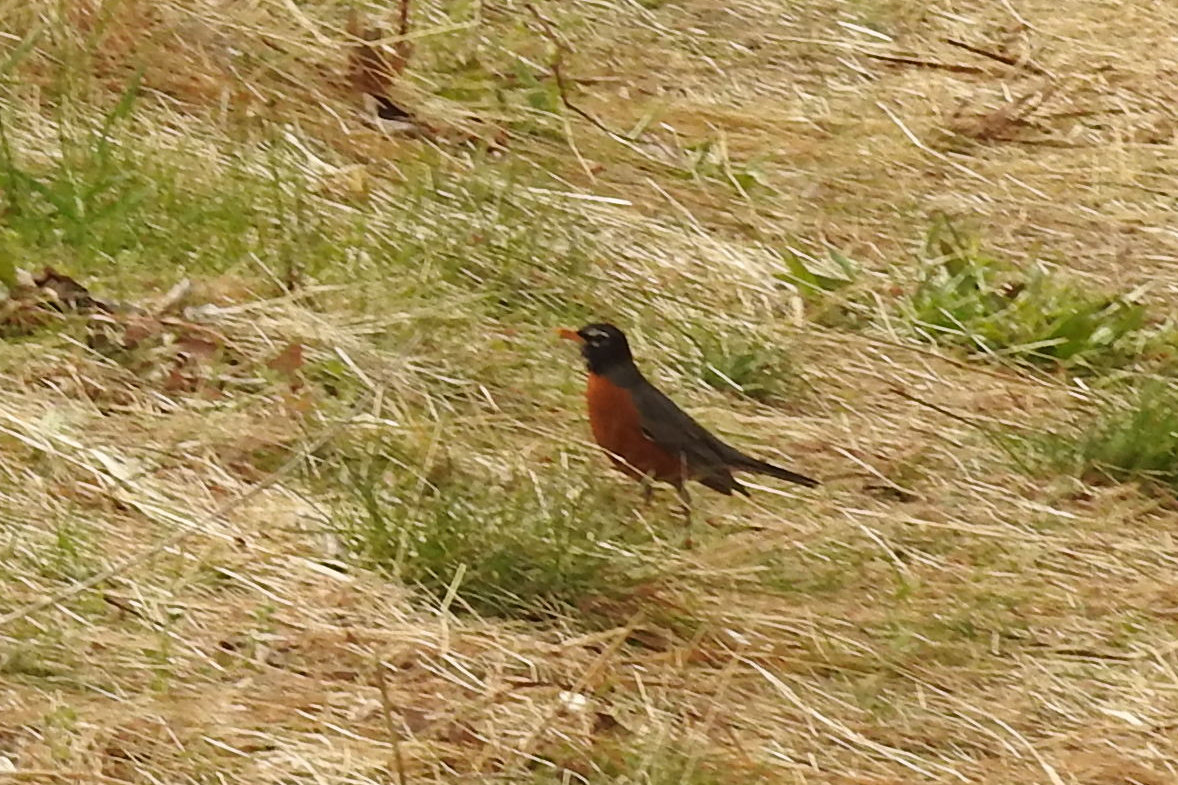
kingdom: Animalia
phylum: Chordata
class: Aves
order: Passeriformes
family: Turdidae
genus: Turdus
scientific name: Turdus migratorius
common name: American robin
